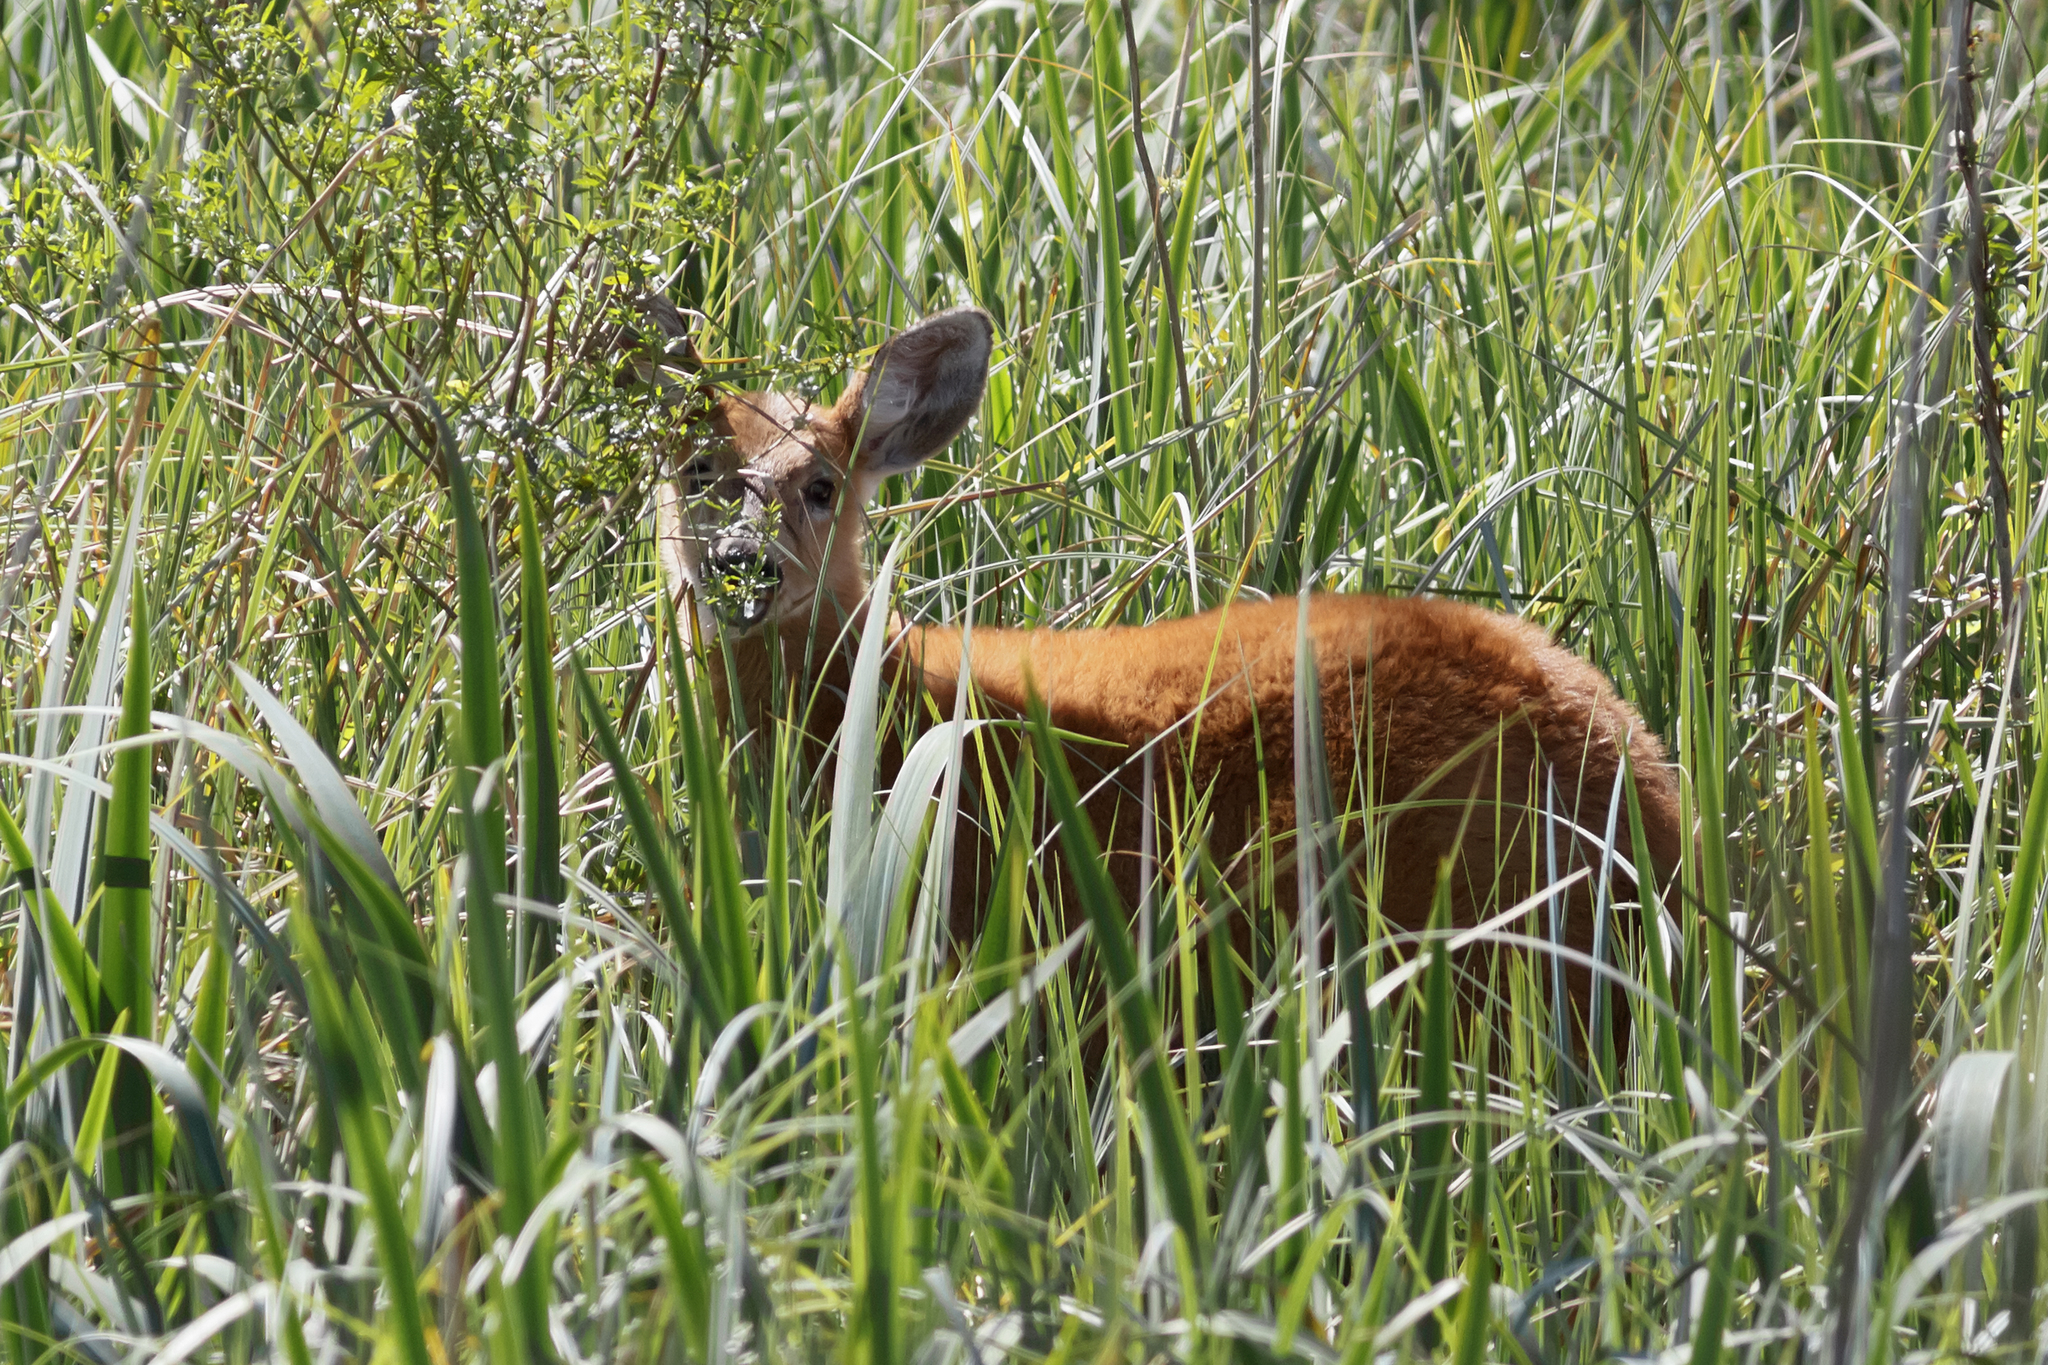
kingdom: Animalia
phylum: Chordata
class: Mammalia
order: Artiodactyla
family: Cervidae
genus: Blastocerus
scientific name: Blastocerus dichotomus
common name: Marsh deer
